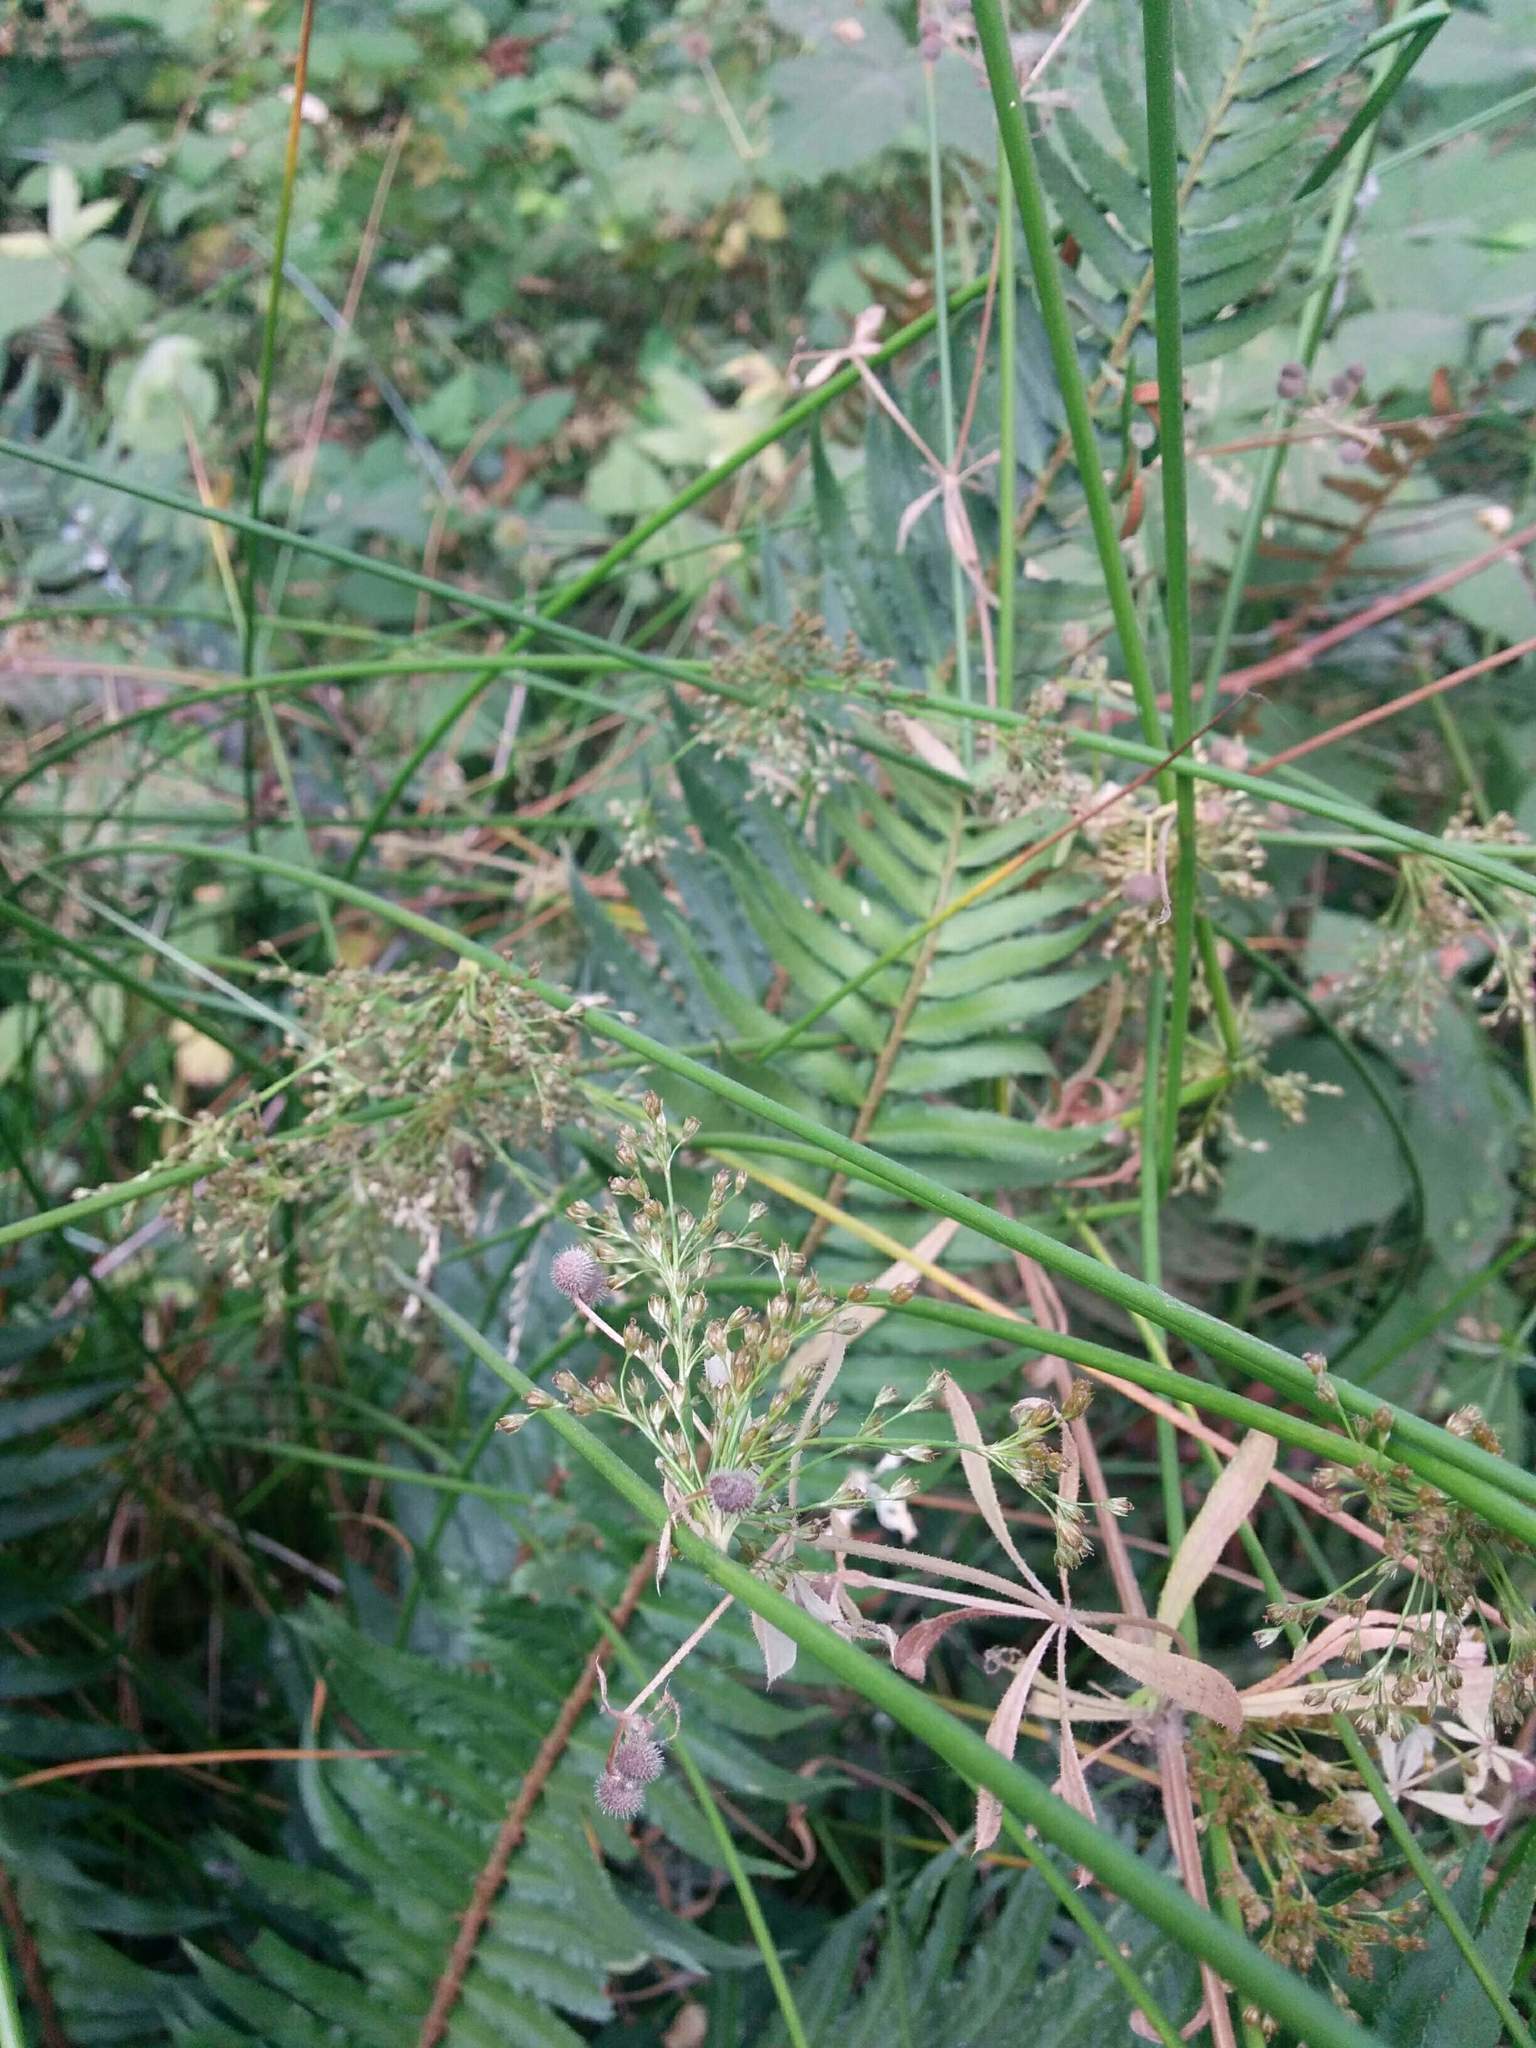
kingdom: Plantae
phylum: Tracheophyta
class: Liliopsida
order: Poales
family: Juncaceae
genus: Juncus
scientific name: Juncus effusus
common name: Soft rush
